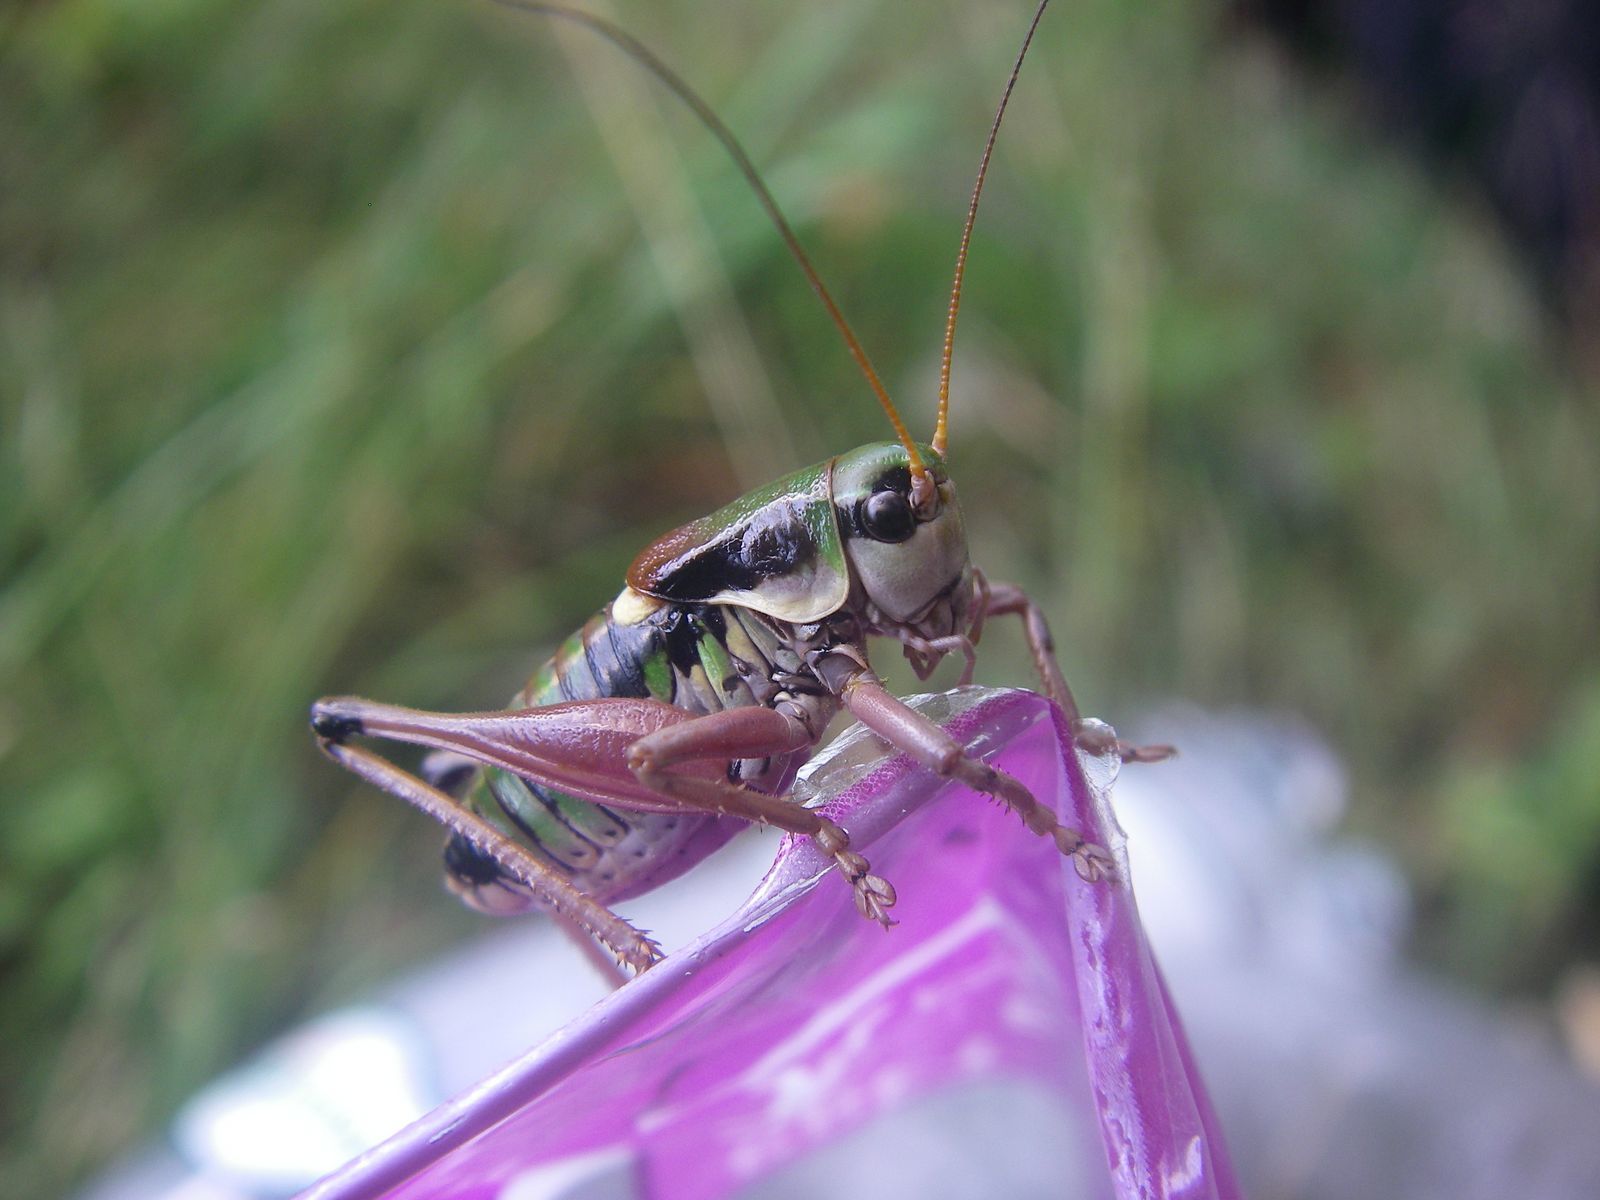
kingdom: Animalia
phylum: Arthropoda
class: Insecta
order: Orthoptera
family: Tettigoniidae
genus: Anonconotus
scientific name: Anonconotus alpinus
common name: Small alpine bush-cricket
